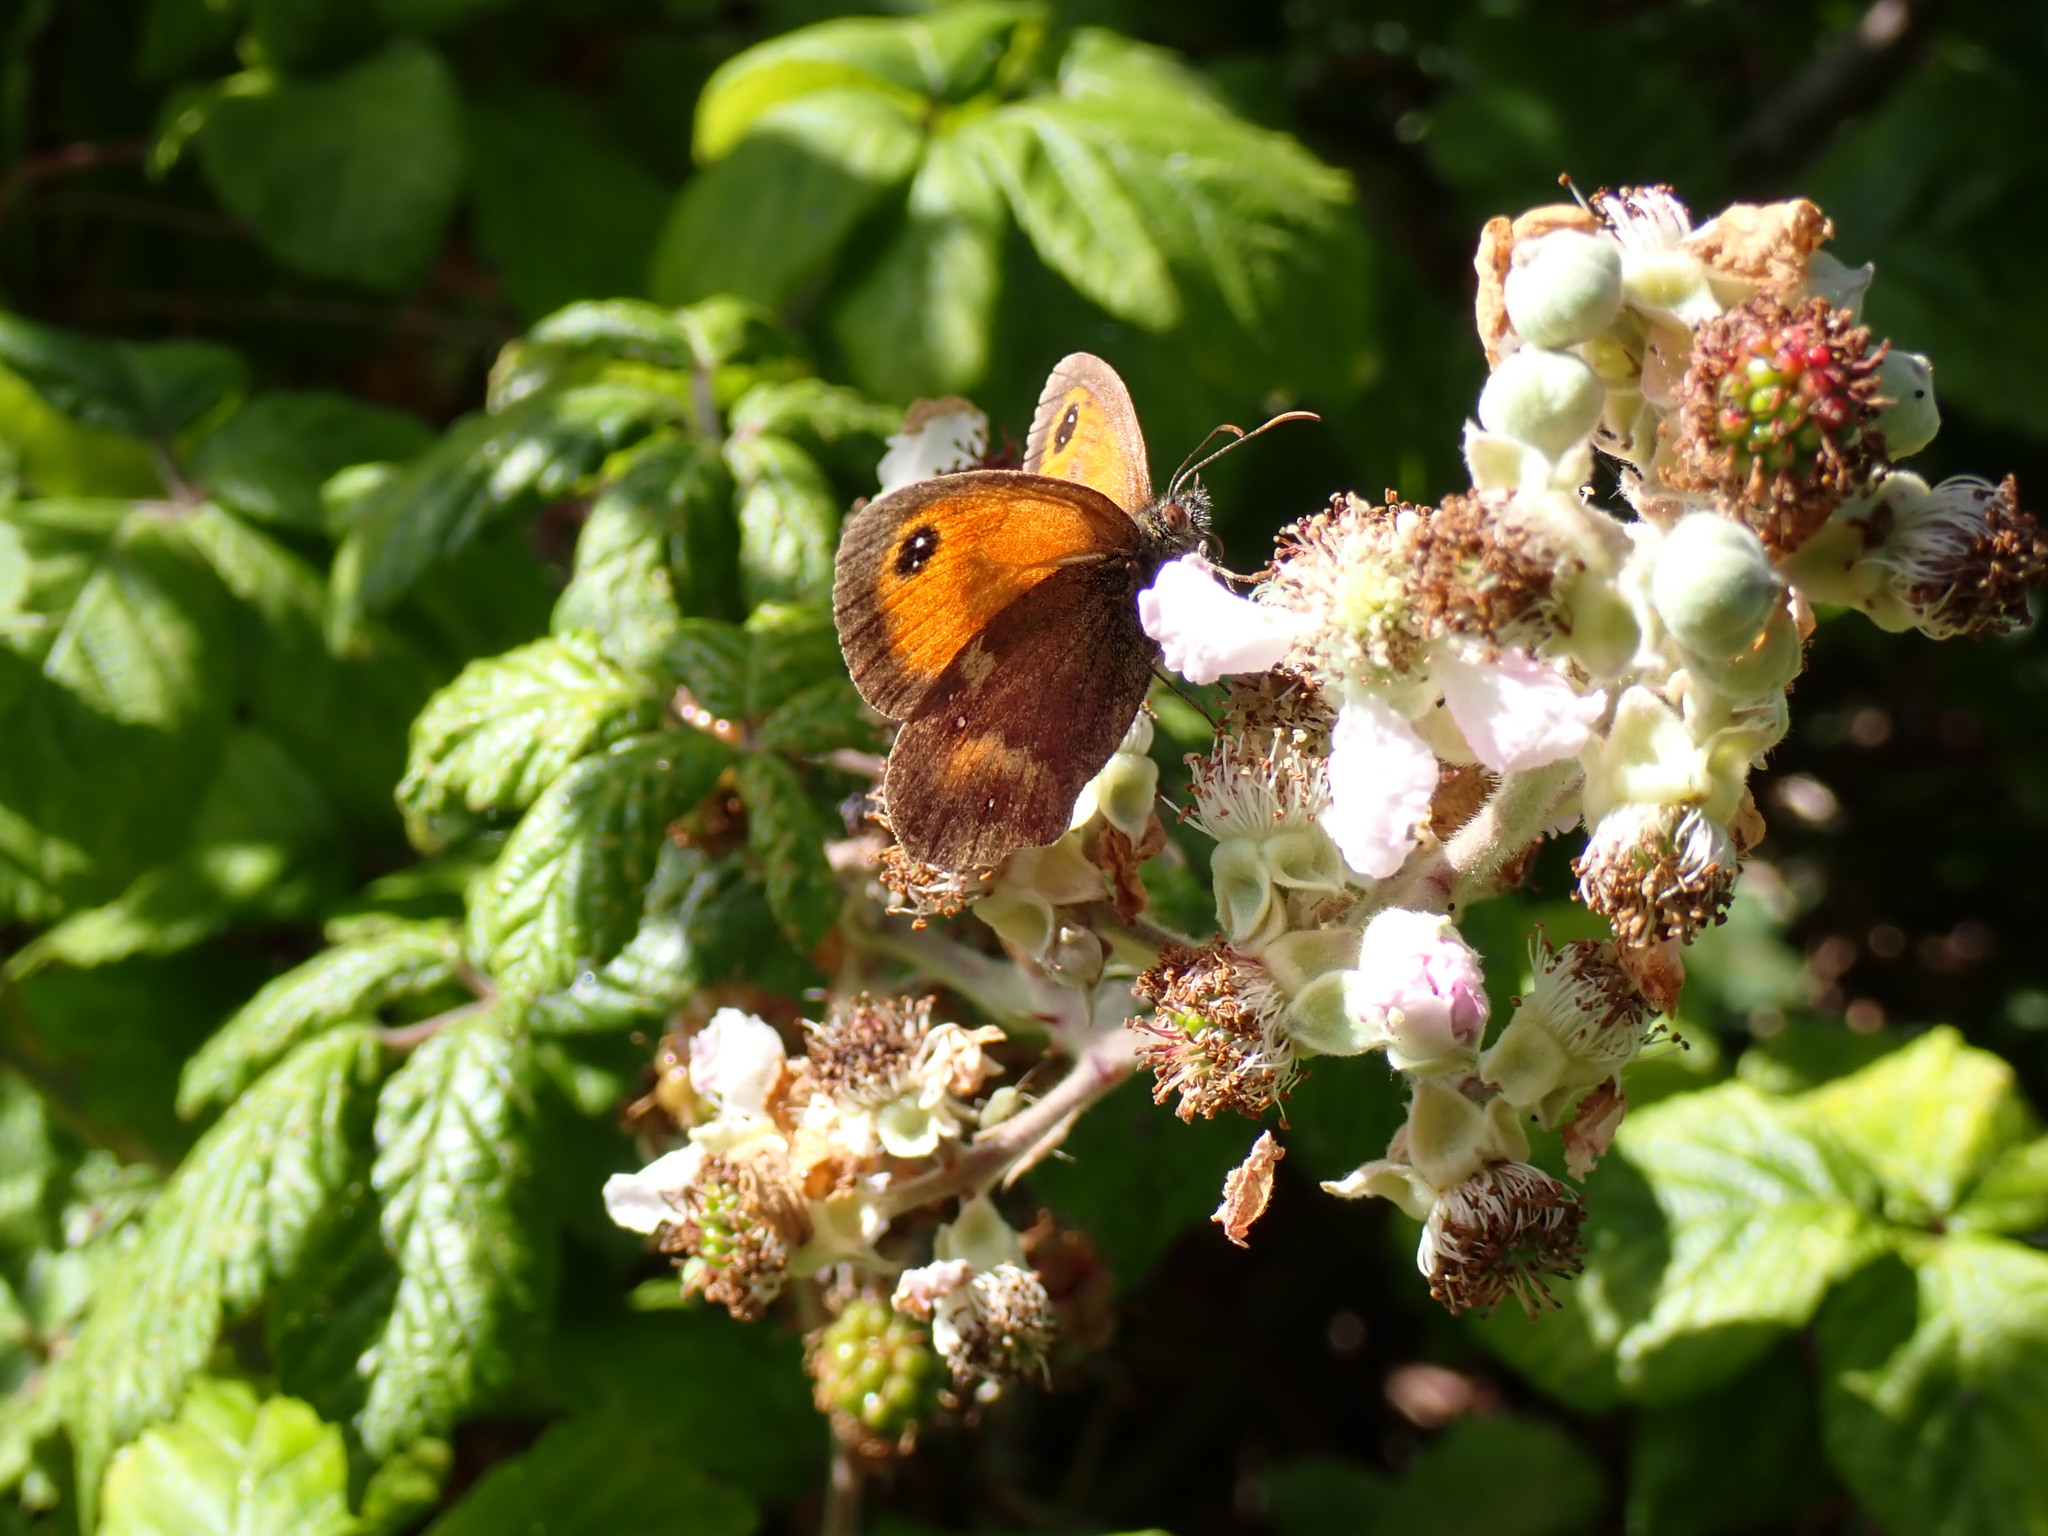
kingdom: Animalia
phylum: Arthropoda
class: Insecta
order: Lepidoptera
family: Nymphalidae
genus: Pyronia
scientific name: Pyronia tithonus
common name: Gatekeeper
